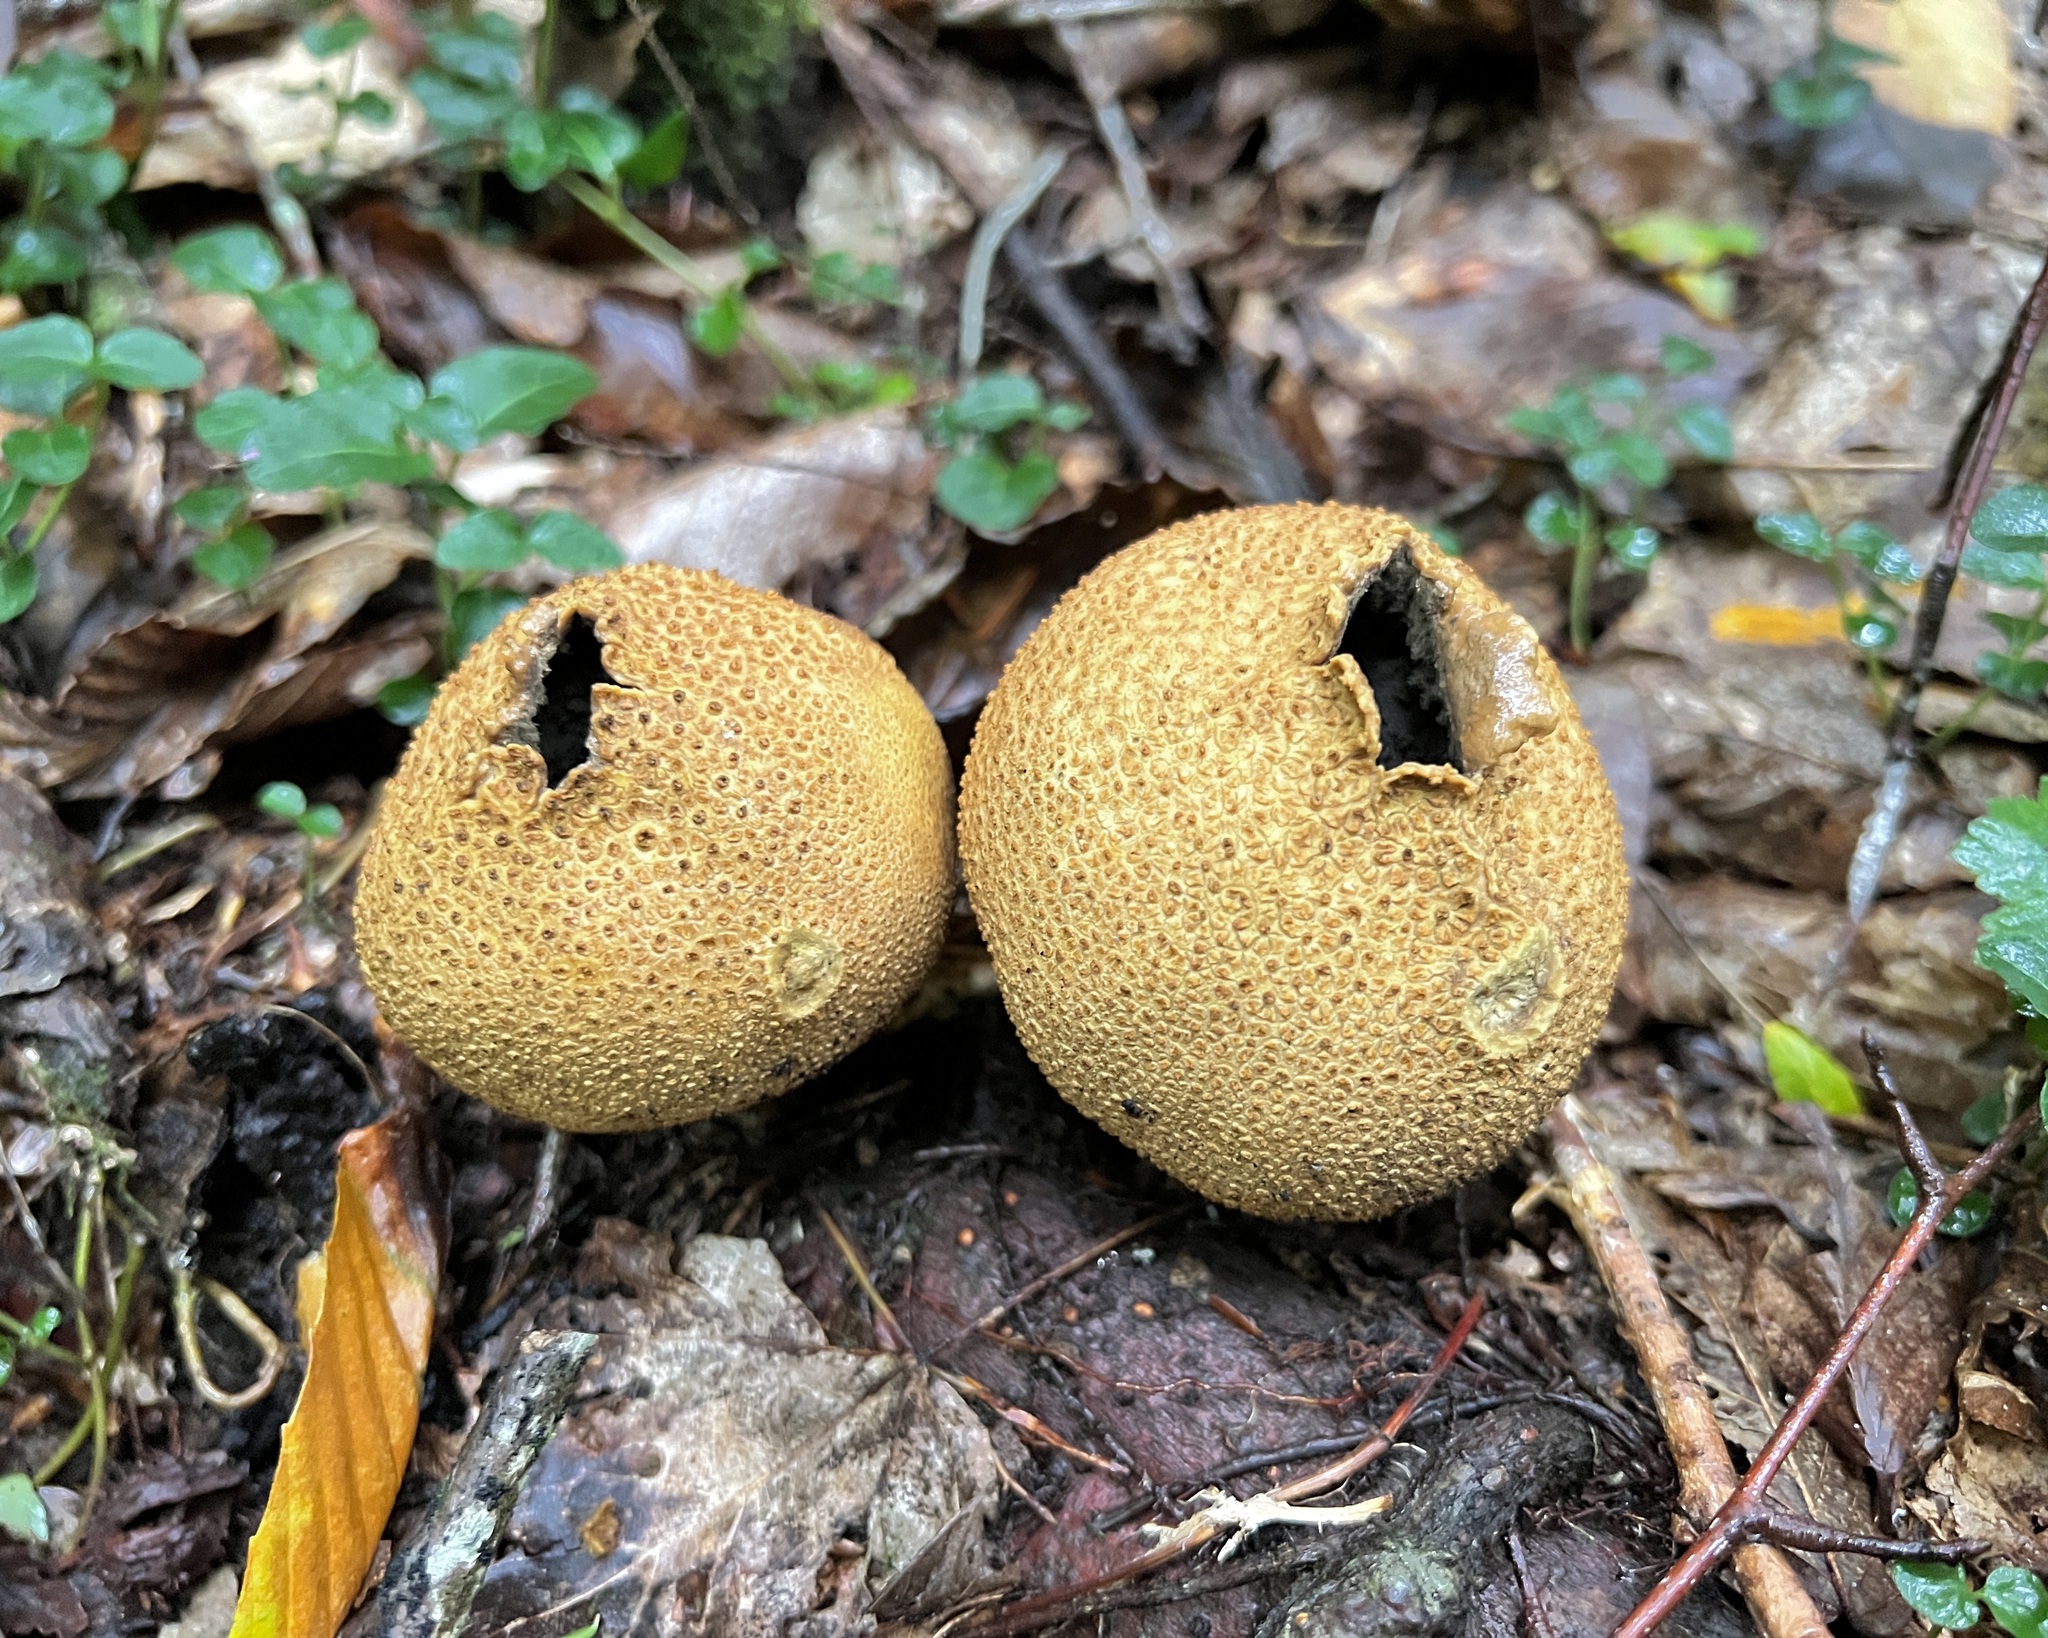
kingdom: Fungi
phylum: Basidiomycota
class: Agaricomycetes
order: Boletales
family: Sclerodermataceae
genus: Scleroderma
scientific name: Scleroderma citrinum
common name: Common earthball
